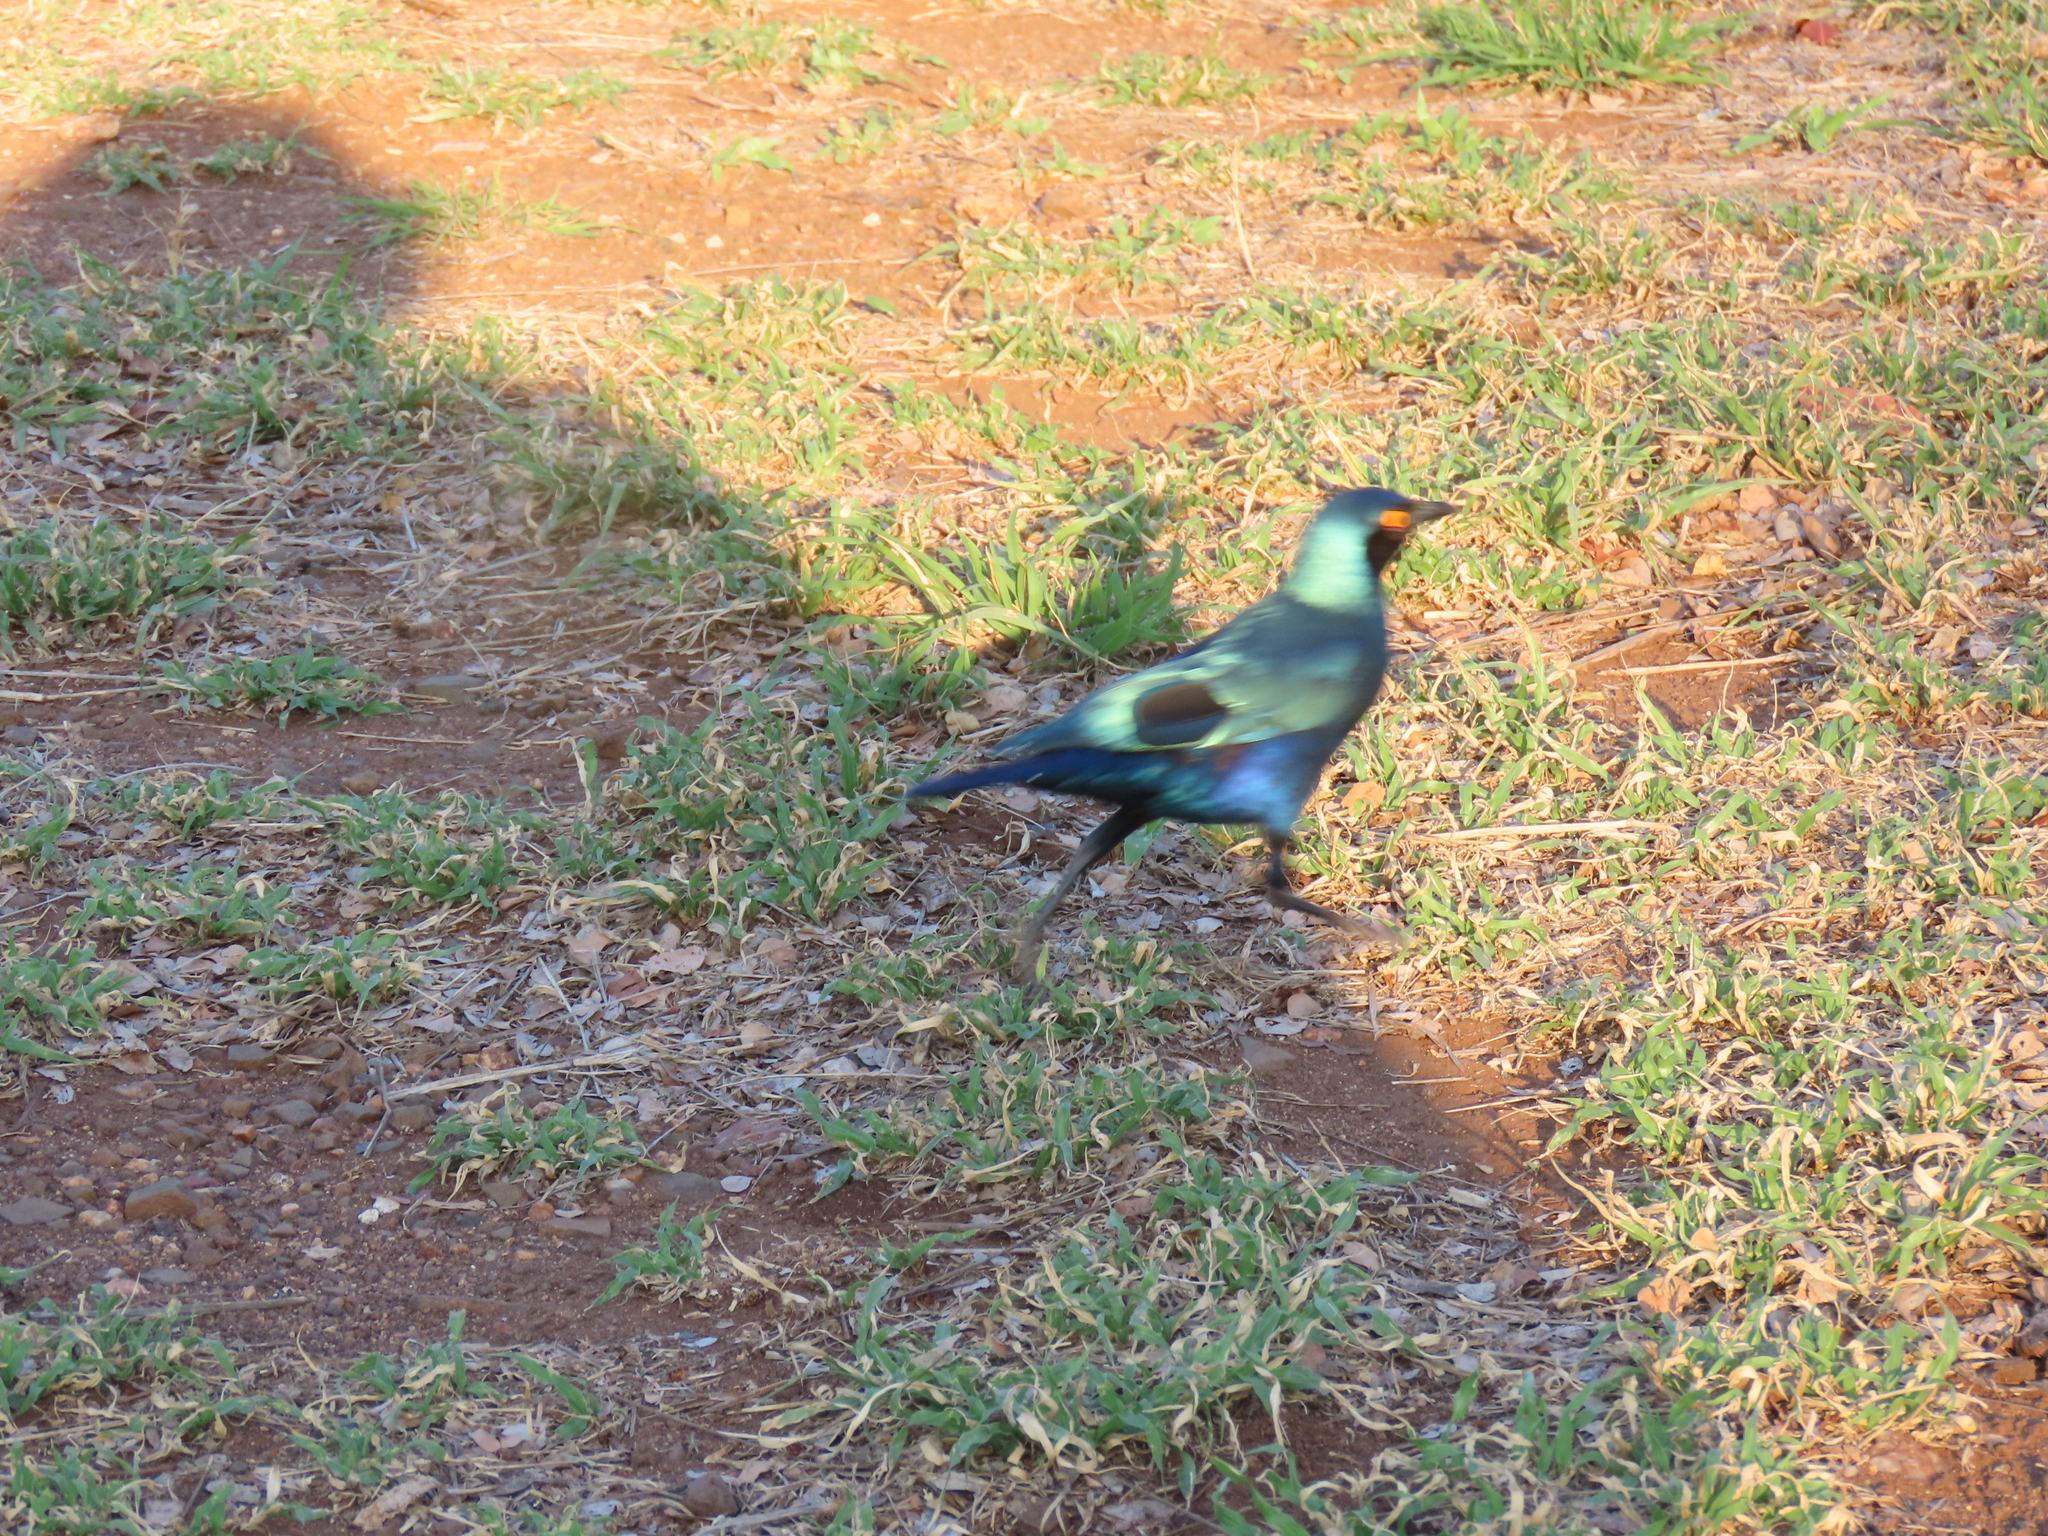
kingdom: Animalia
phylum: Chordata
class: Aves
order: Passeriformes
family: Sturnidae
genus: Lamprotornis
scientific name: Lamprotornis chalybaeus
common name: Greater blue-eared starling
